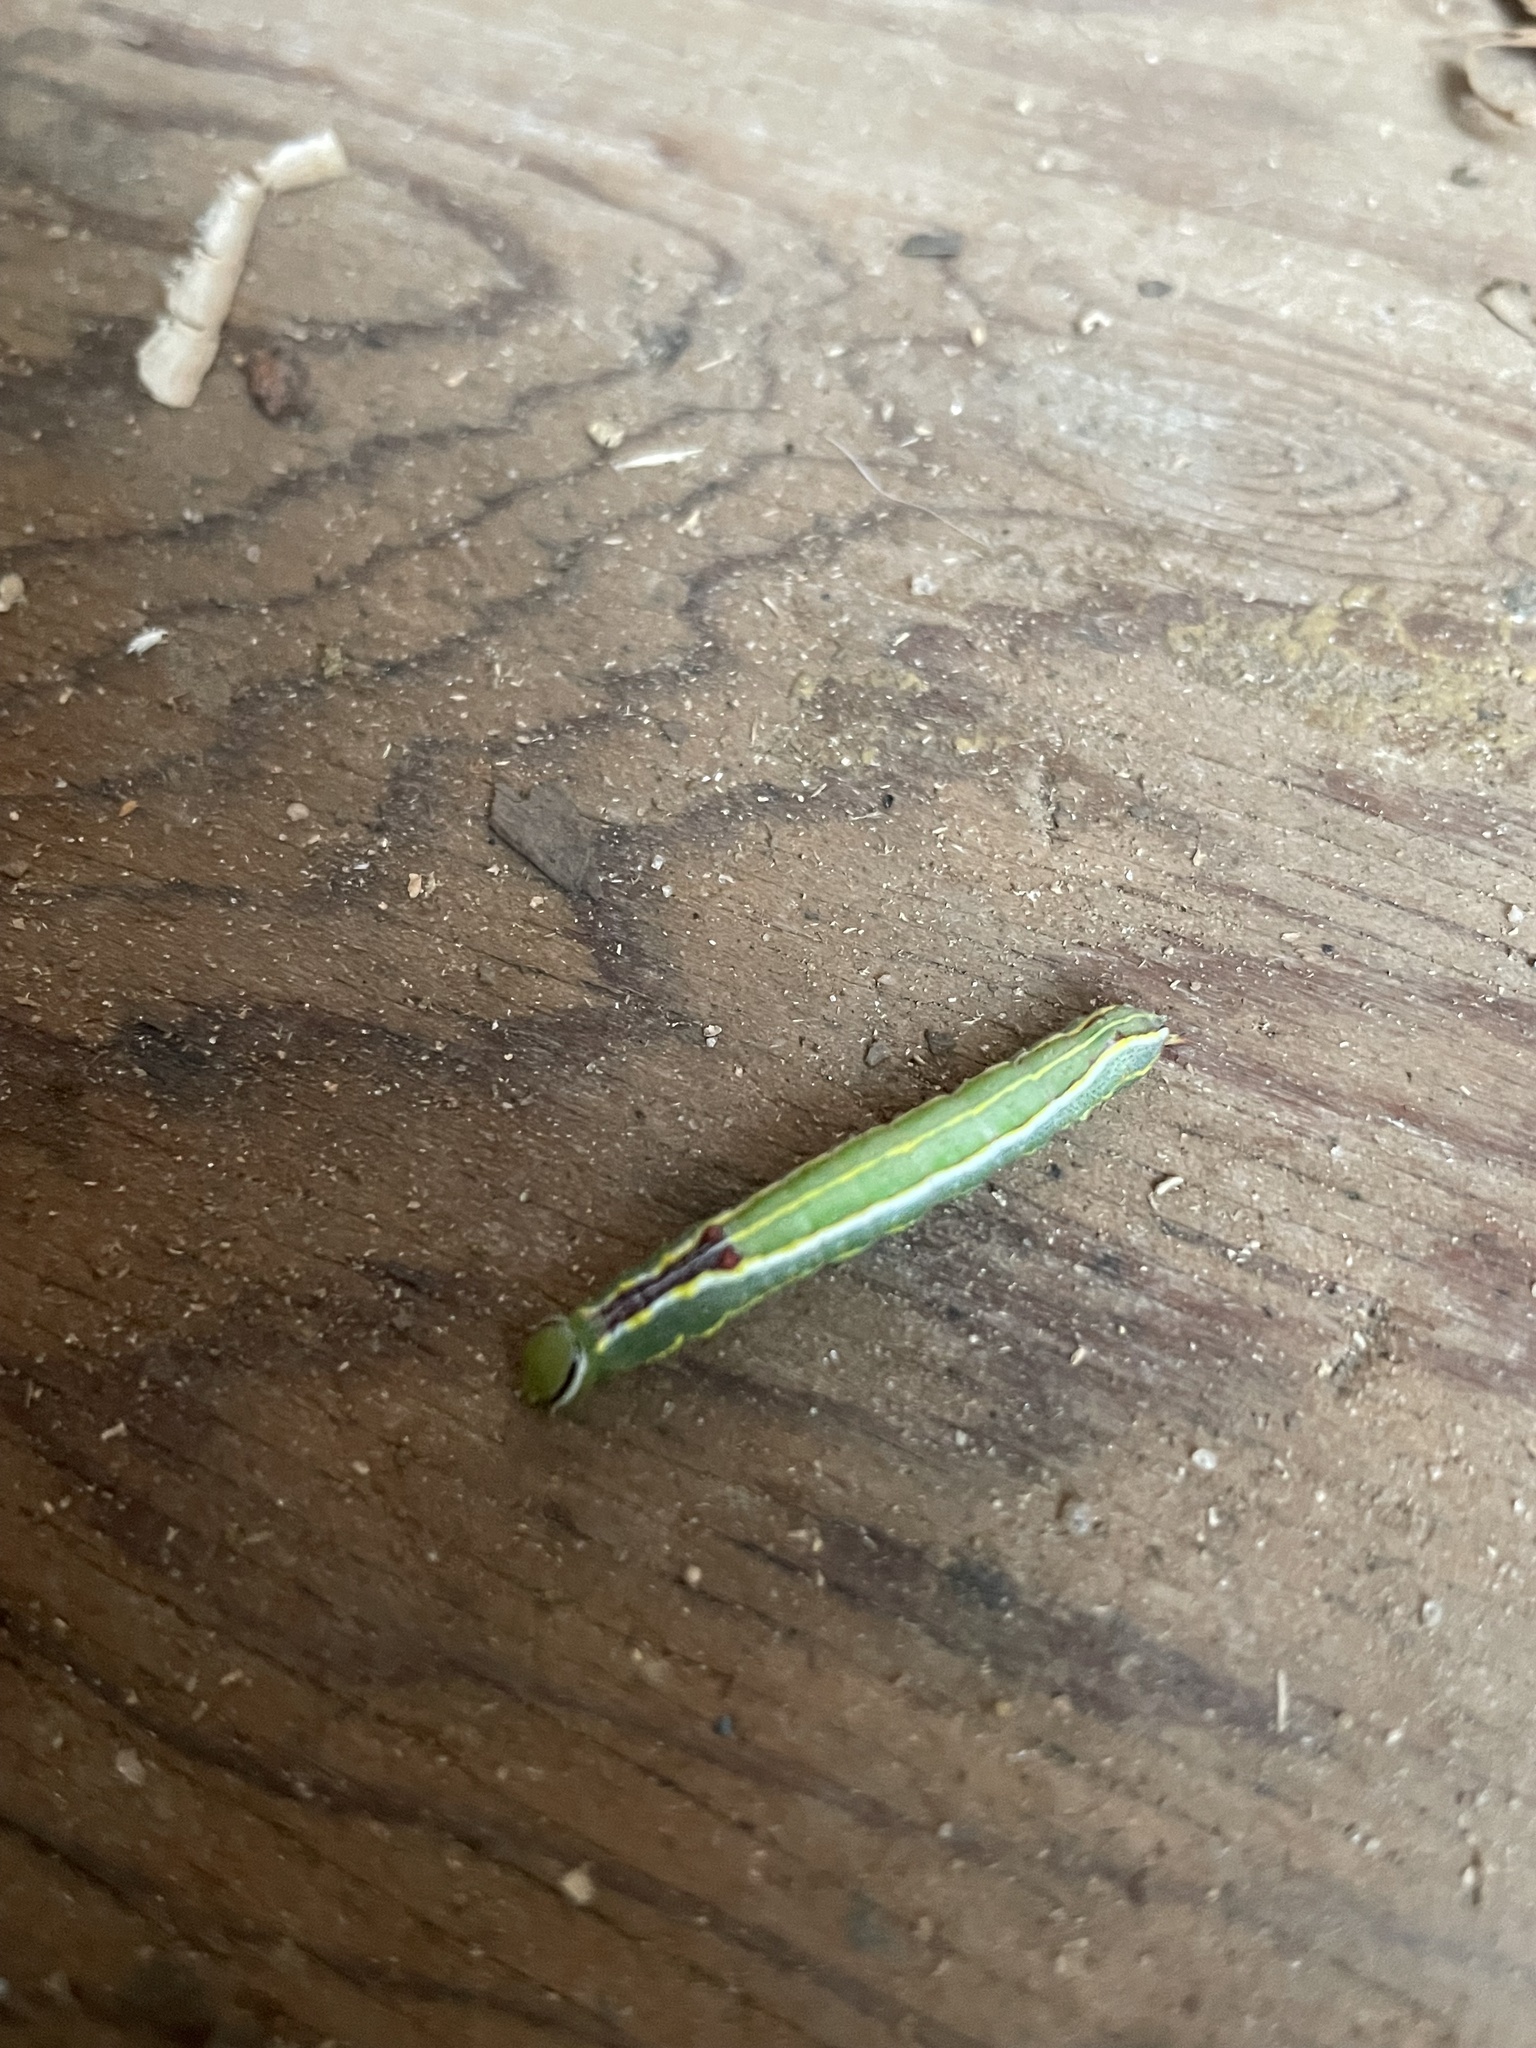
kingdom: Animalia
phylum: Arthropoda
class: Insecta
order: Lepidoptera
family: Notodontidae
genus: Lochmaeus
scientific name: Lochmaeus manteo
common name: Variable oakleaf caterpillar moth
